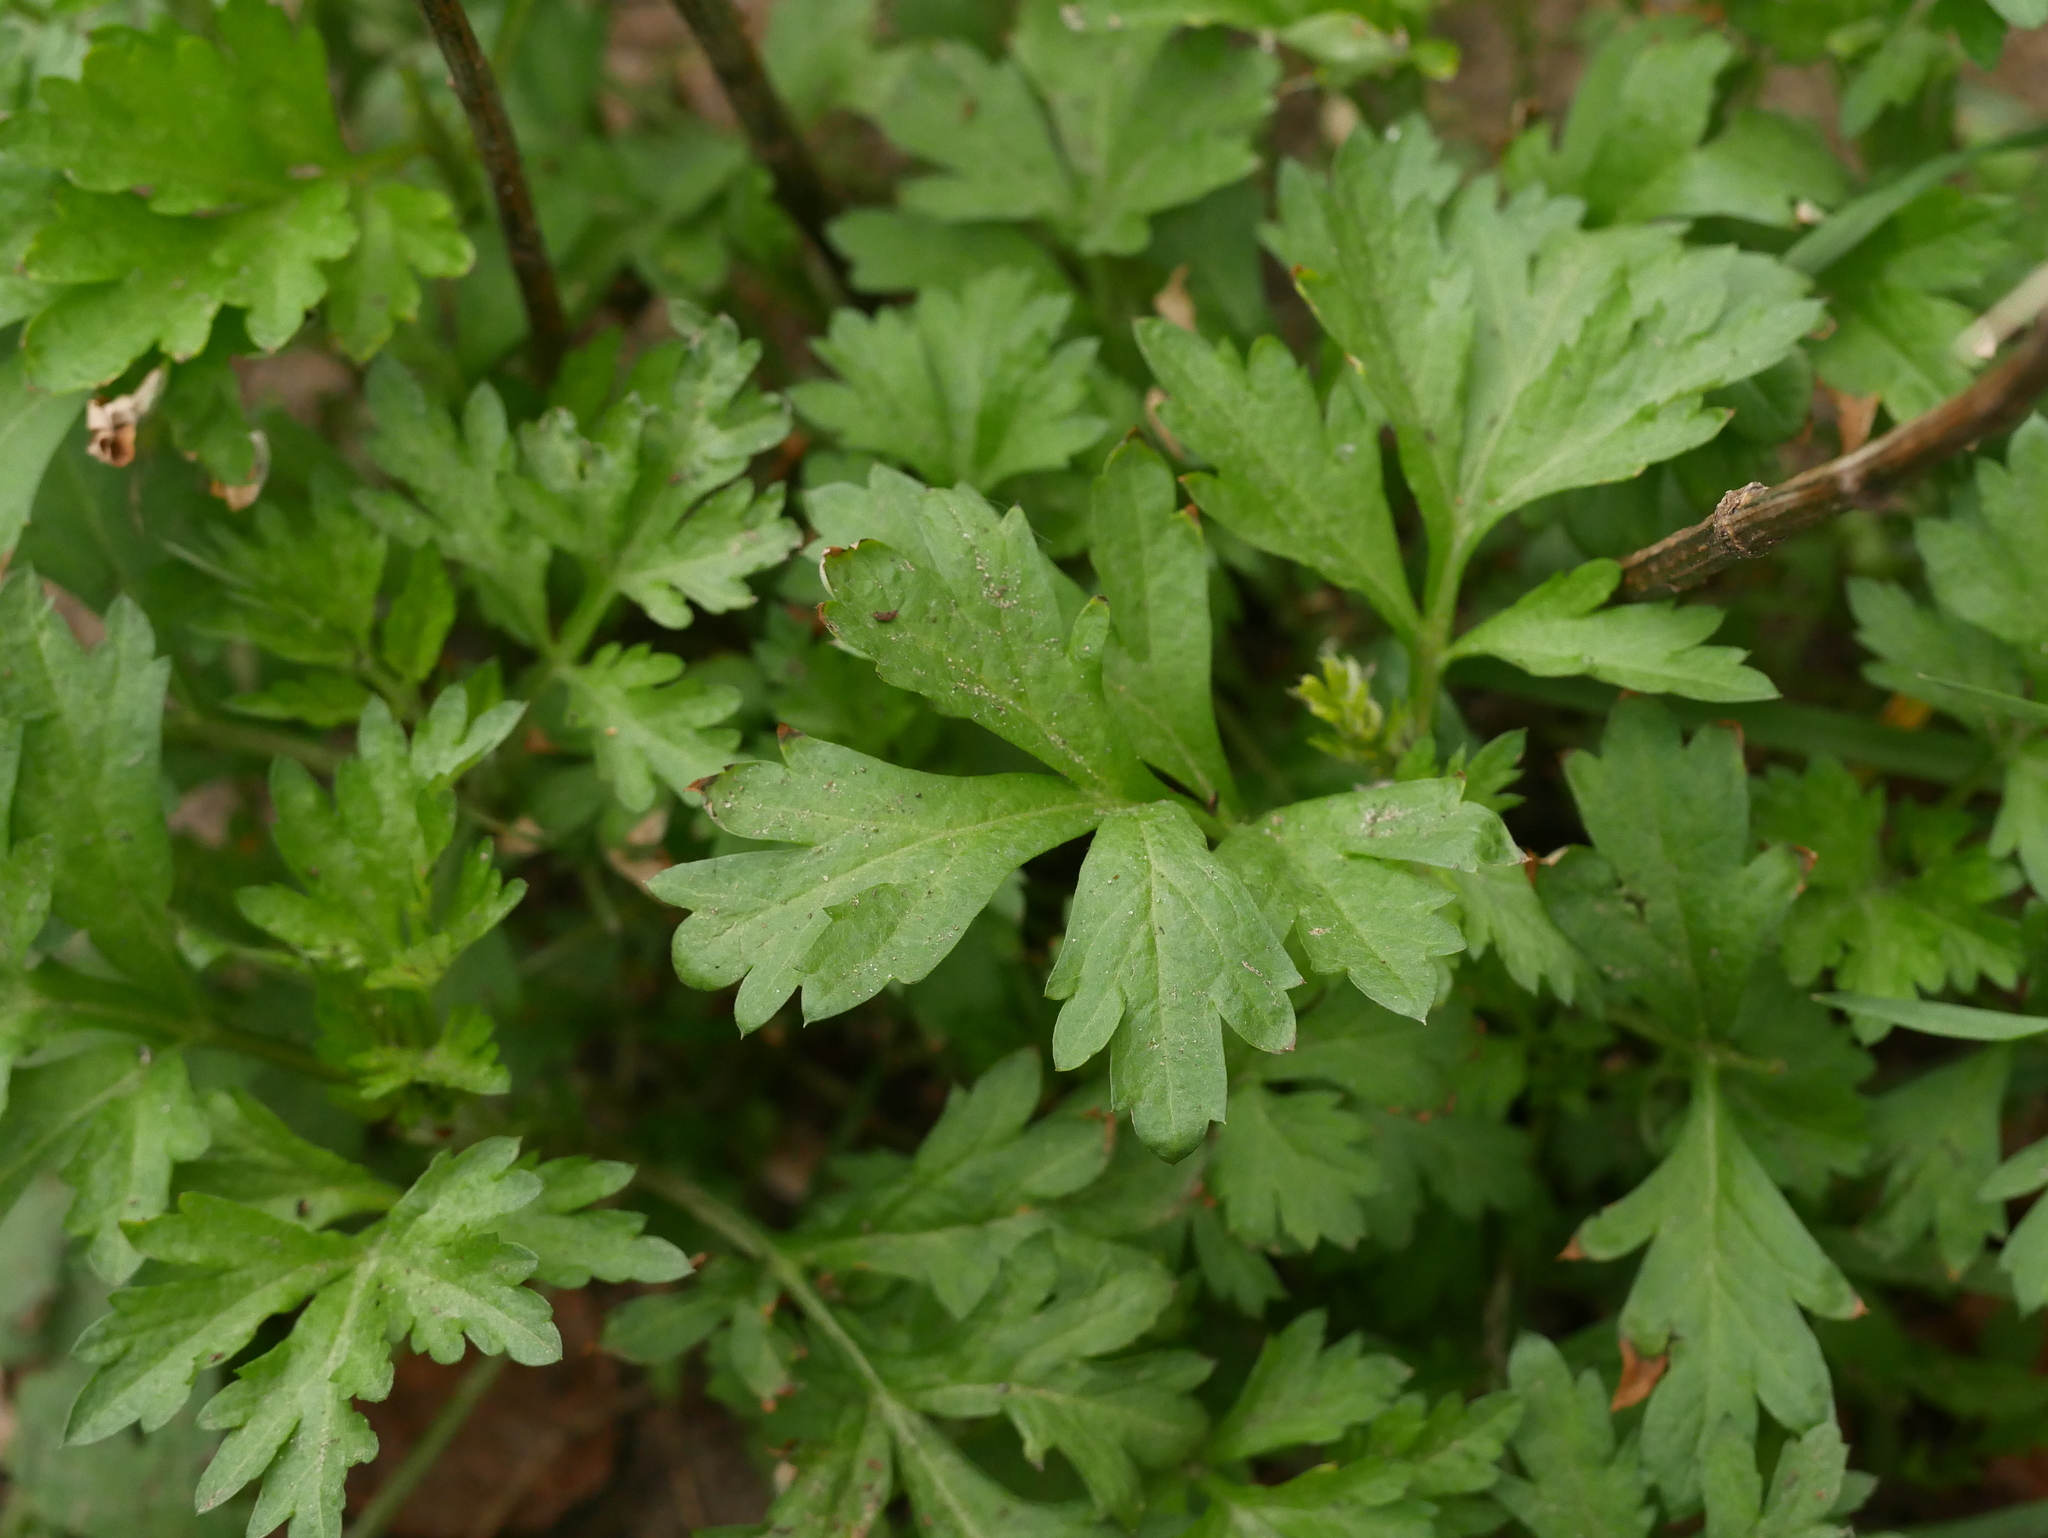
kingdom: Plantae
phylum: Tracheophyta
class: Magnoliopsida
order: Asterales
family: Asteraceae
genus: Artemisia
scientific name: Artemisia vulgaris
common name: Mugwort
